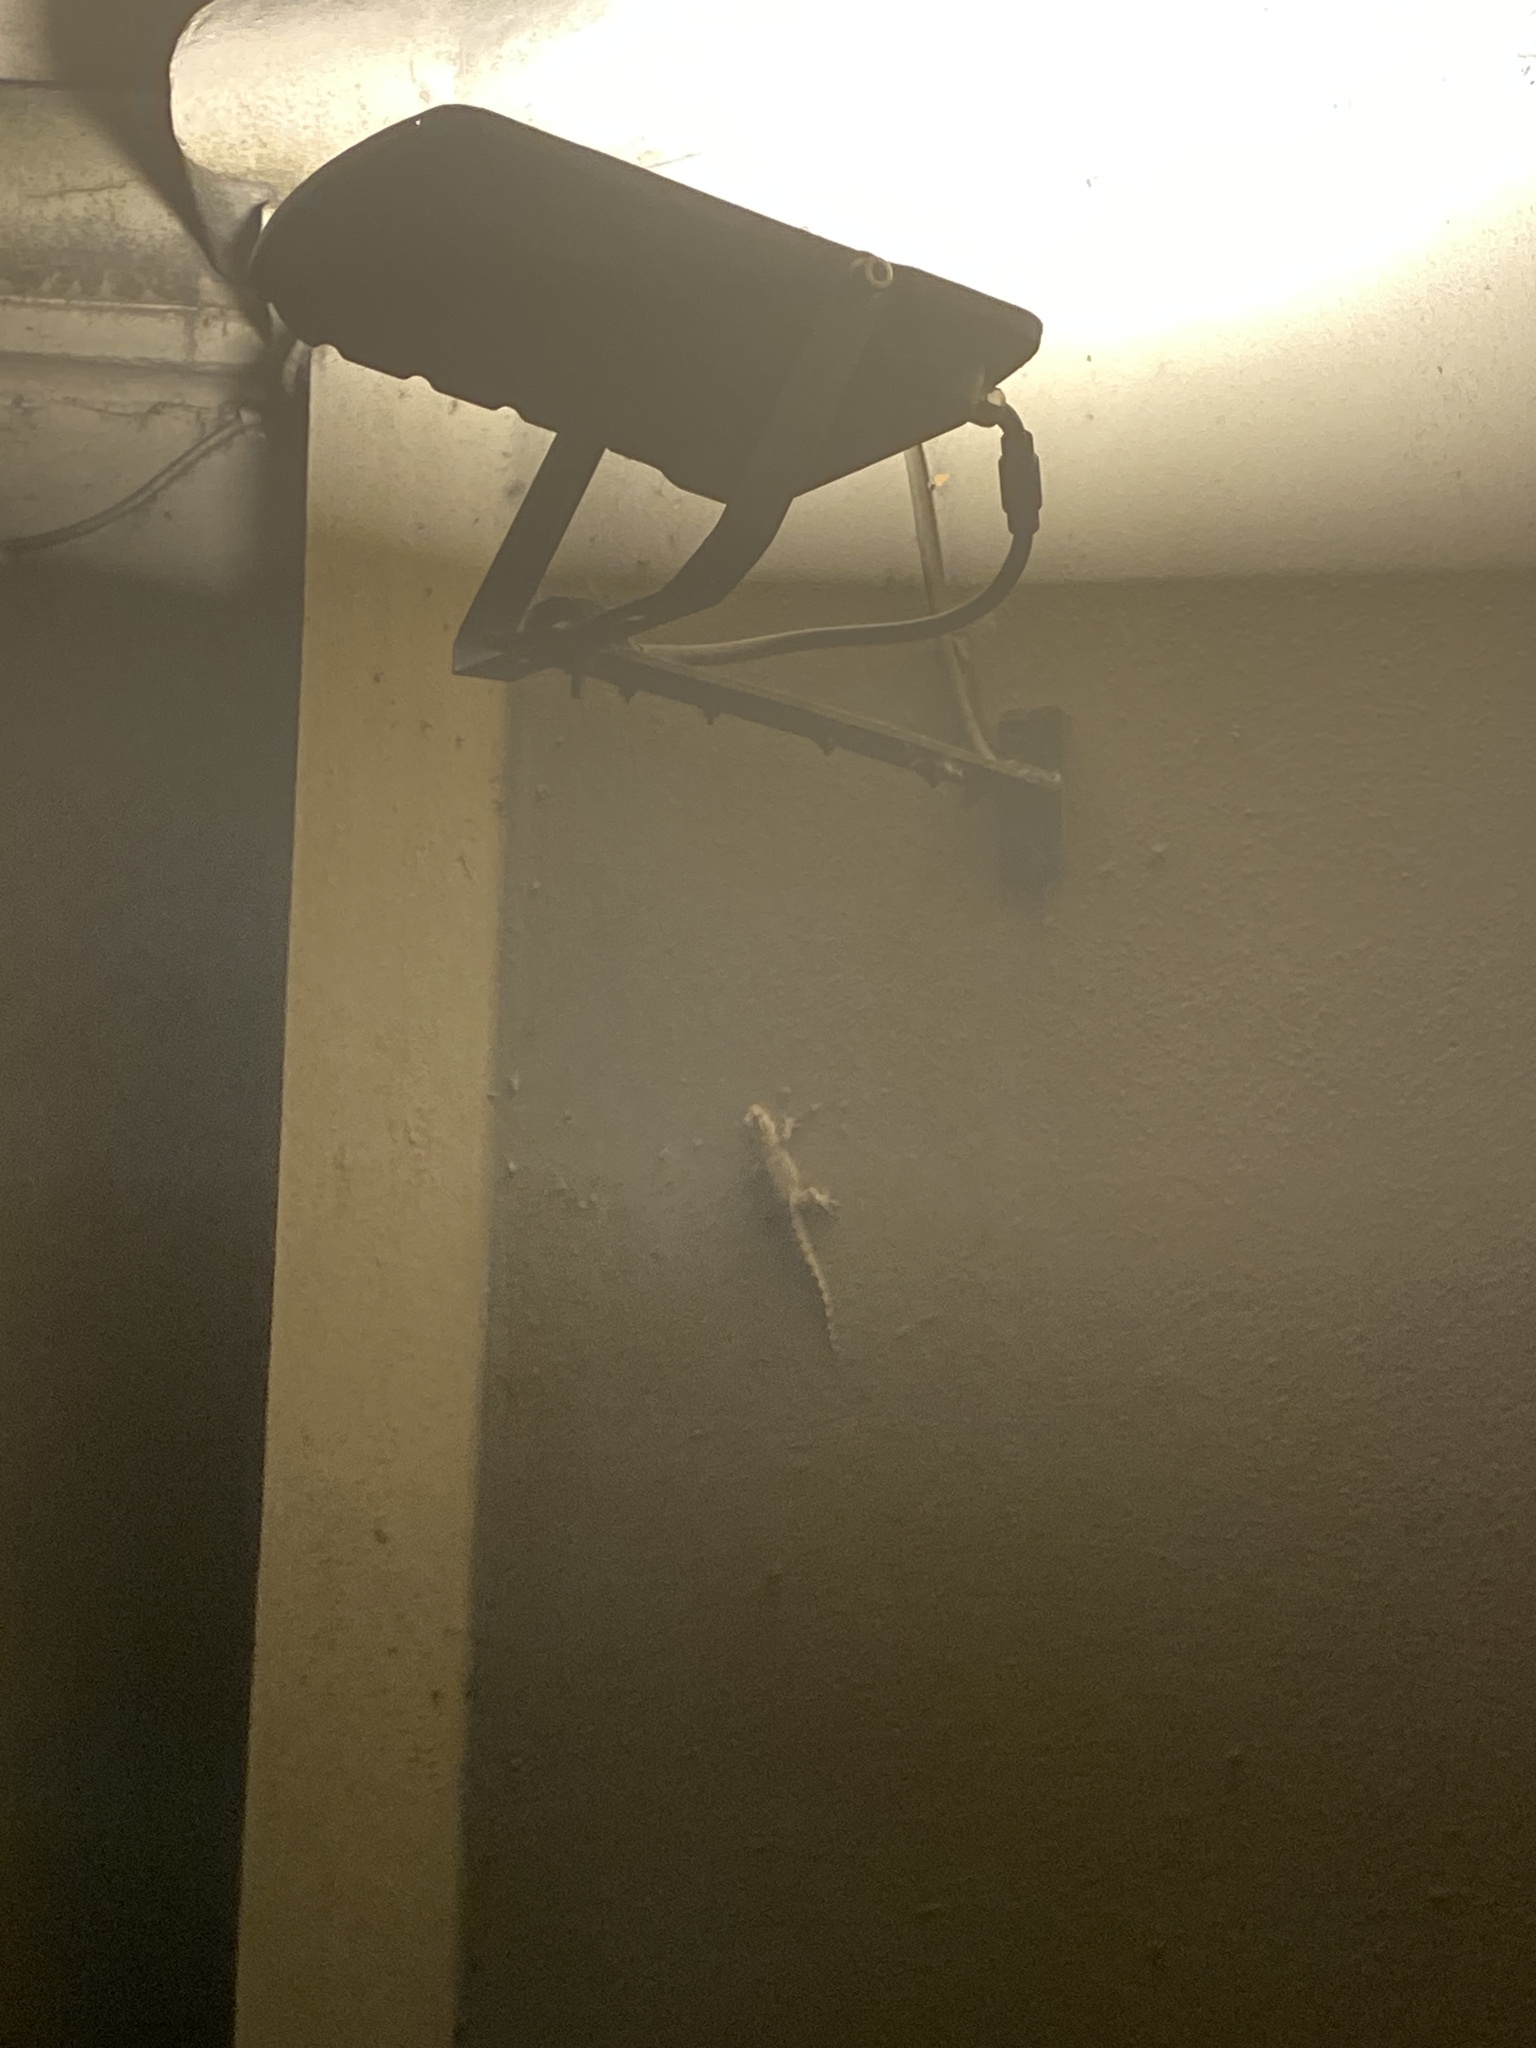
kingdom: Animalia
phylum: Chordata
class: Squamata
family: Phyllodactylidae
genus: Tarentola
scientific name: Tarentola mauritanica
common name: Moorish gecko
